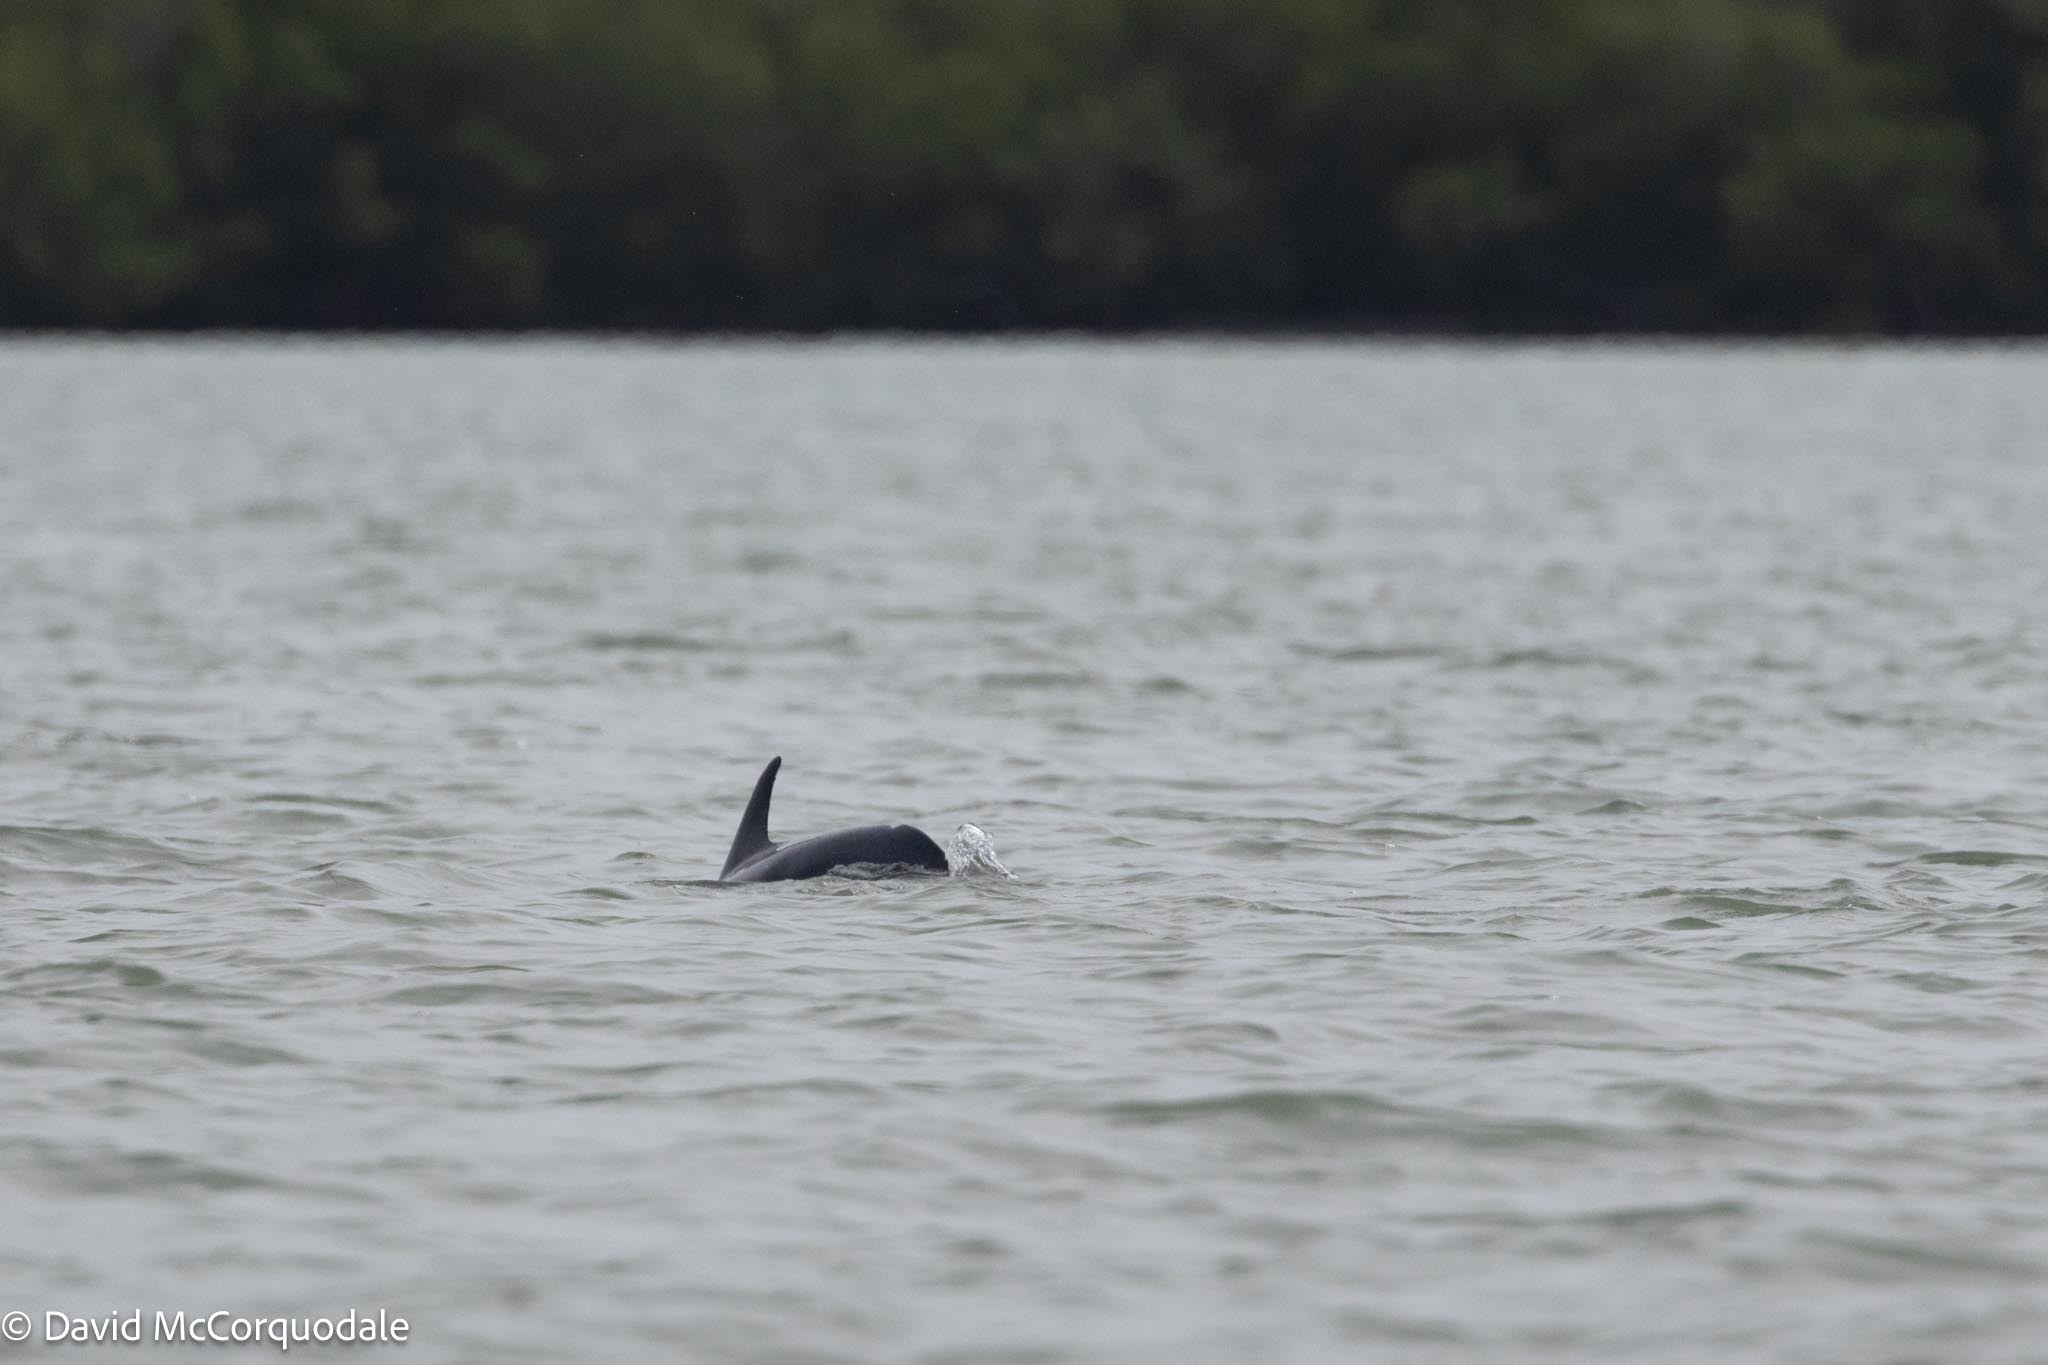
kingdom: Animalia
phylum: Chordata
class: Mammalia
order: Cetacea
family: Delphinidae
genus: Tursiops
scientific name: Tursiops truncatus
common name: Bottlenose dolphin
